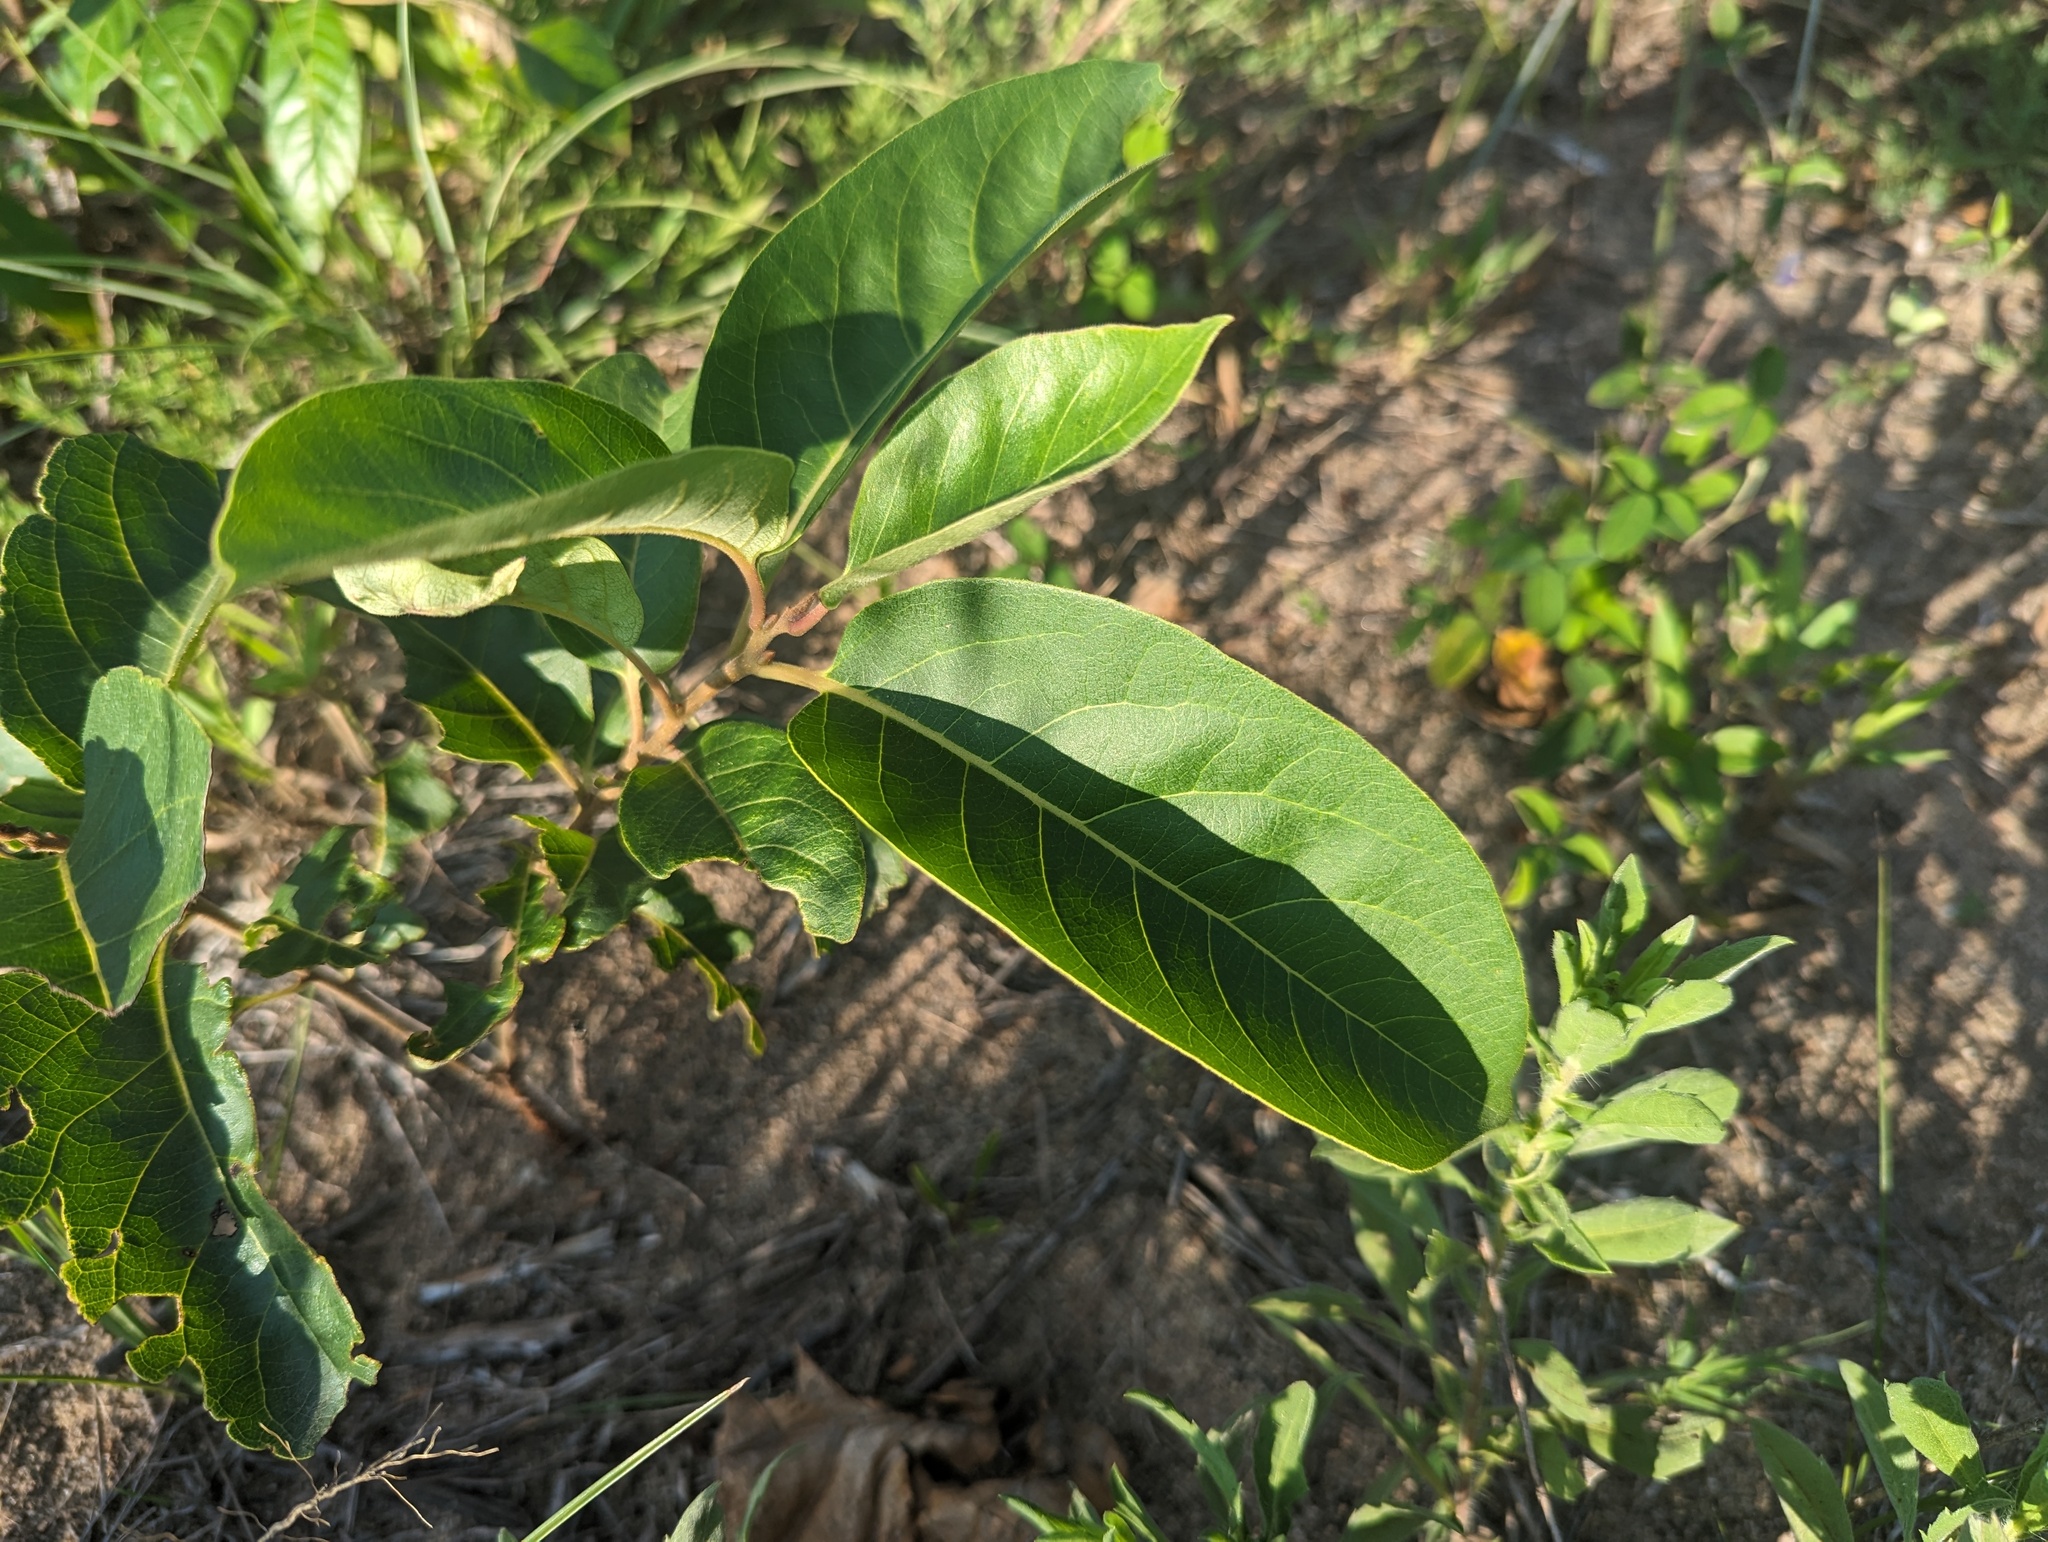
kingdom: Plantae
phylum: Tracheophyta
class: Magnoliopsida
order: Ericales
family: Ebenaceae
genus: Diospyros
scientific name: Diospyros virginiana
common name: Persimmon
